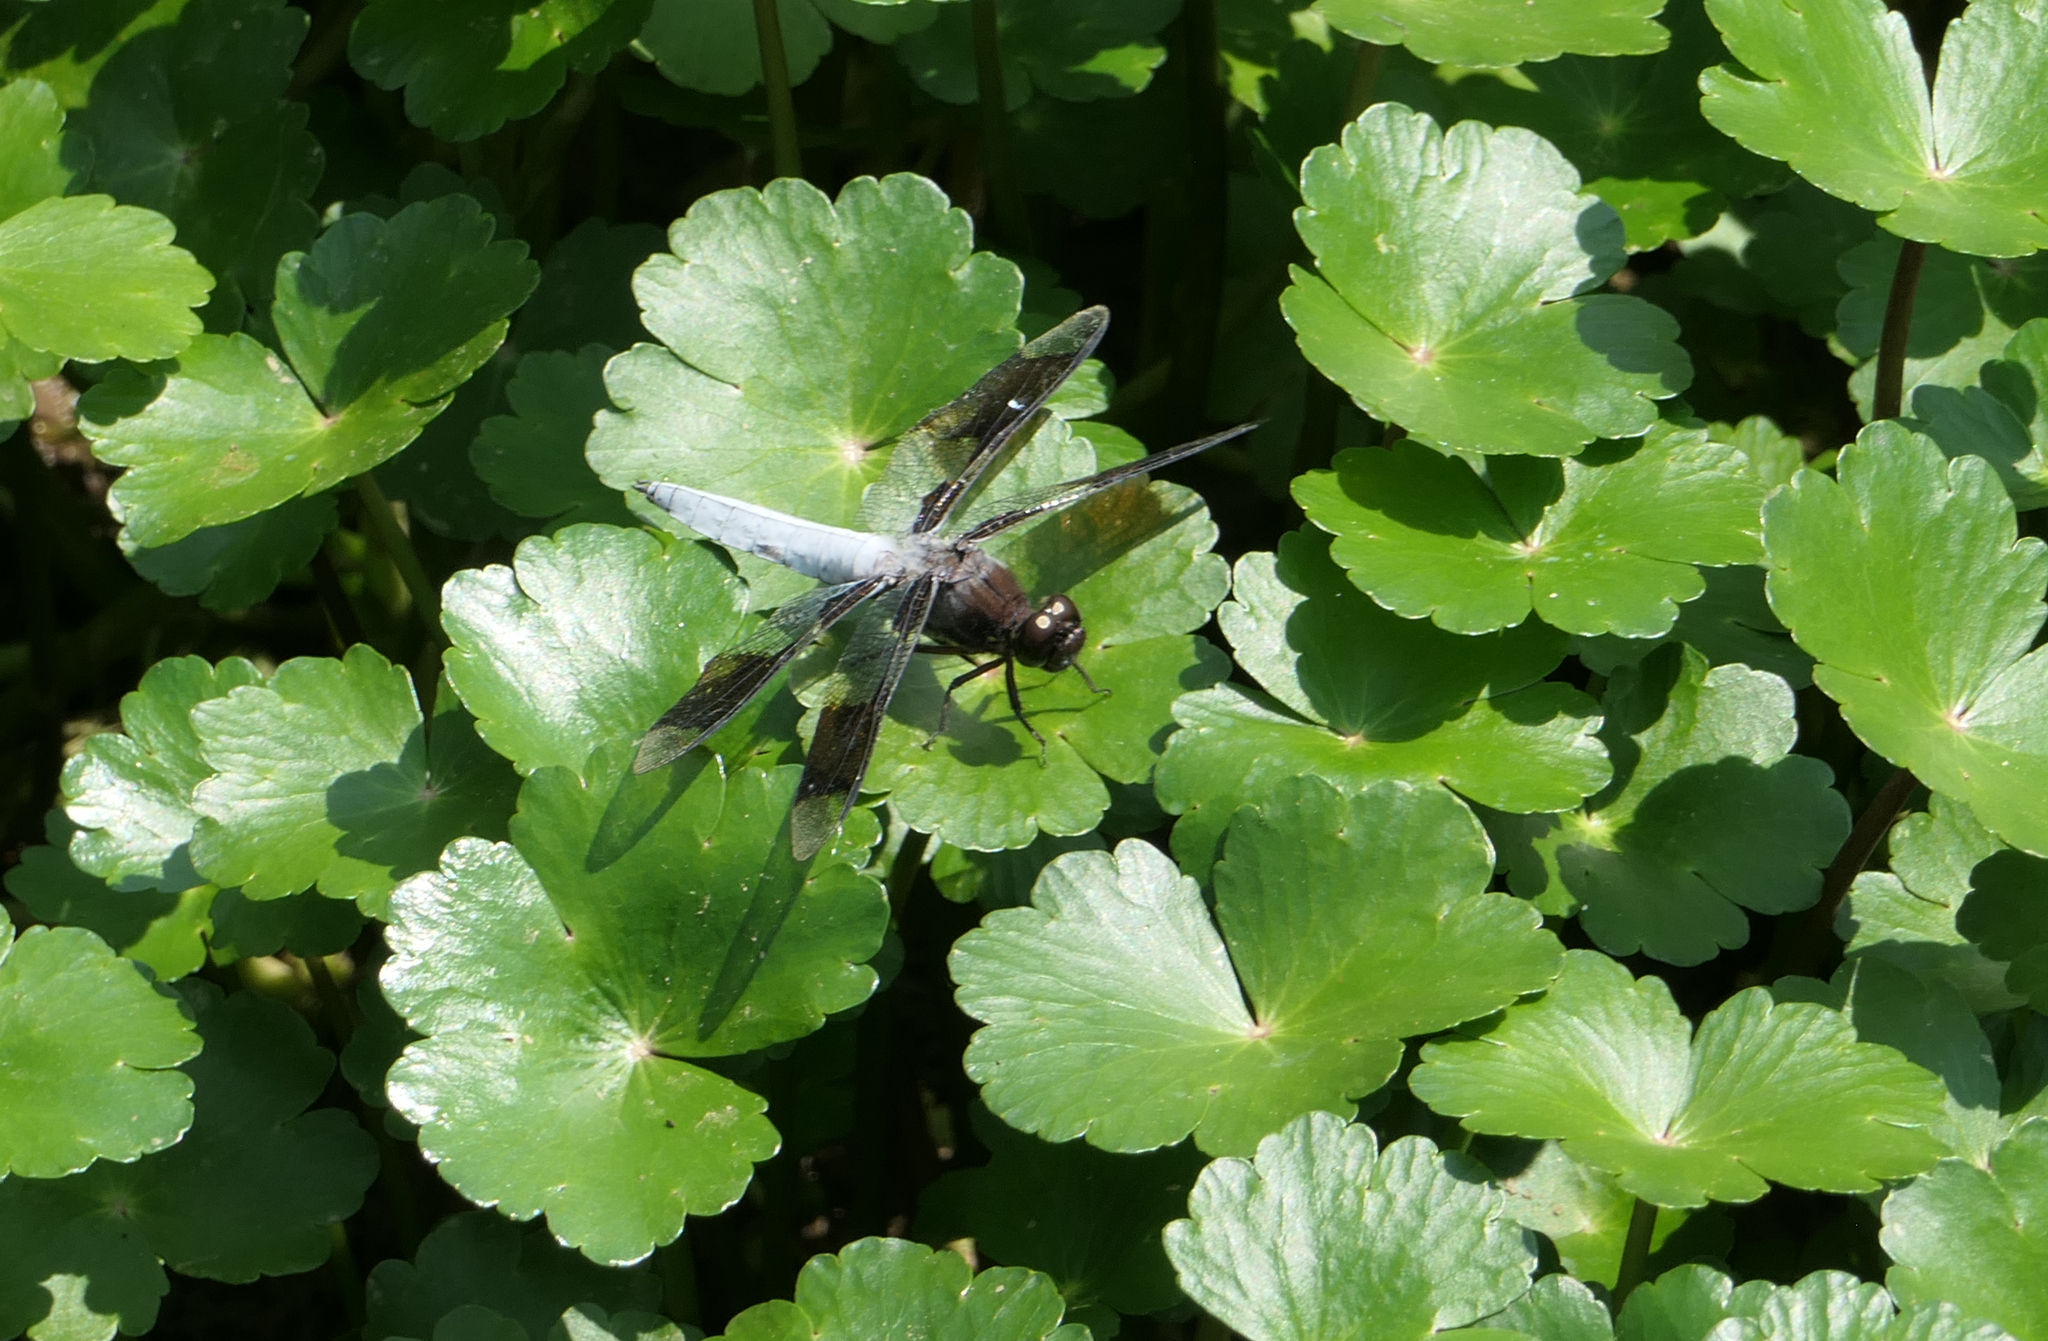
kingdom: Animalia
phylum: Arthropoda
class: Insecta
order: Odonata
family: Libellulidae
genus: Plathemis
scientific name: Plathemis lydia
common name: Common whitetail
